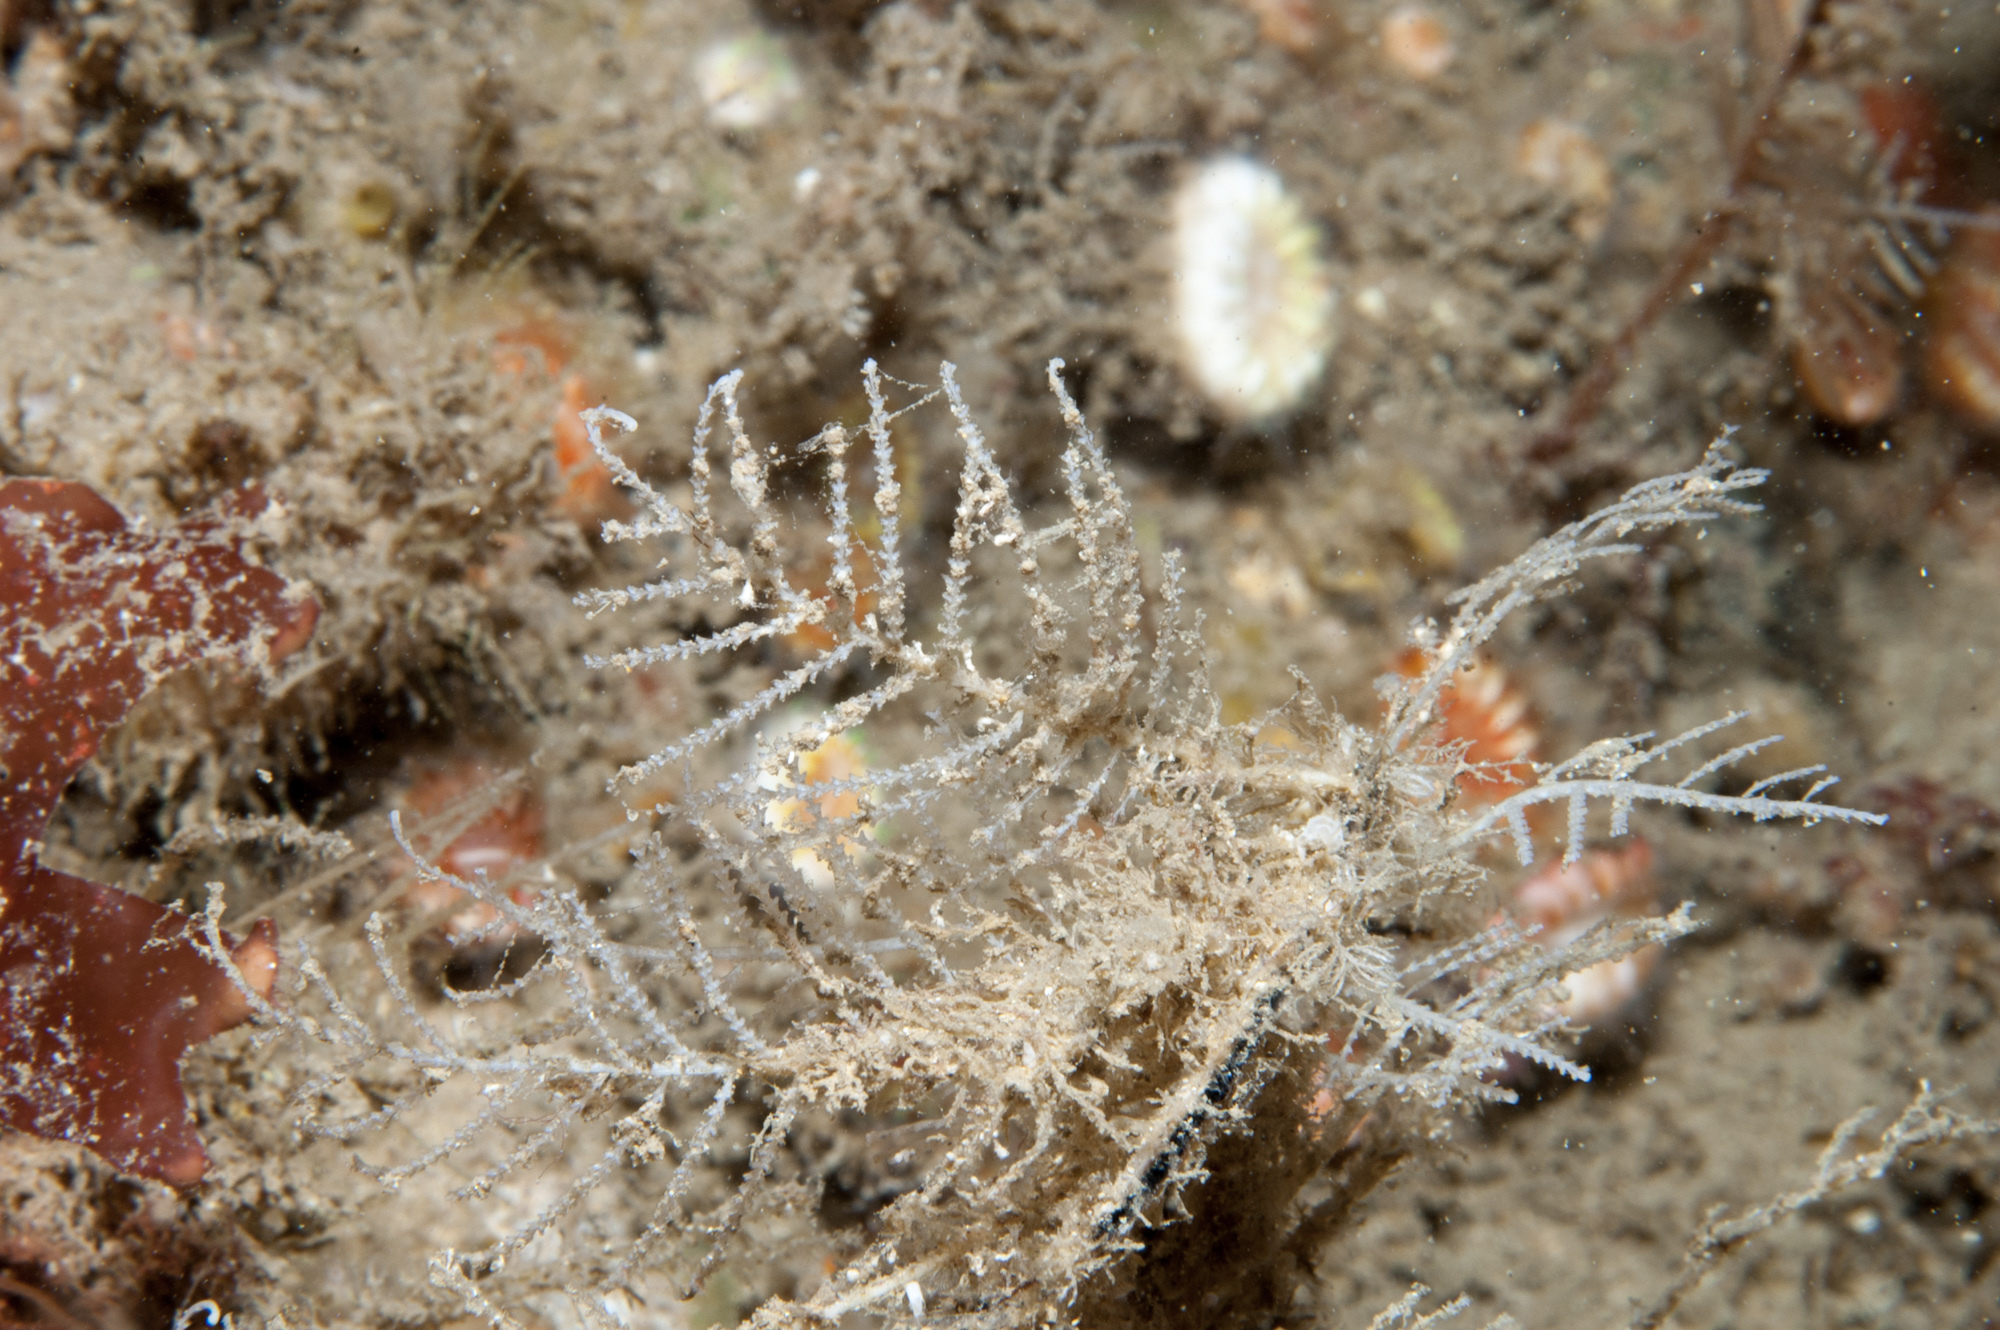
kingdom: Animalia
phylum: Cnidaria
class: Hydrozoa
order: Leptothecata
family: Sertulariidae
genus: Diphasia
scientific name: Diphasia fallax
